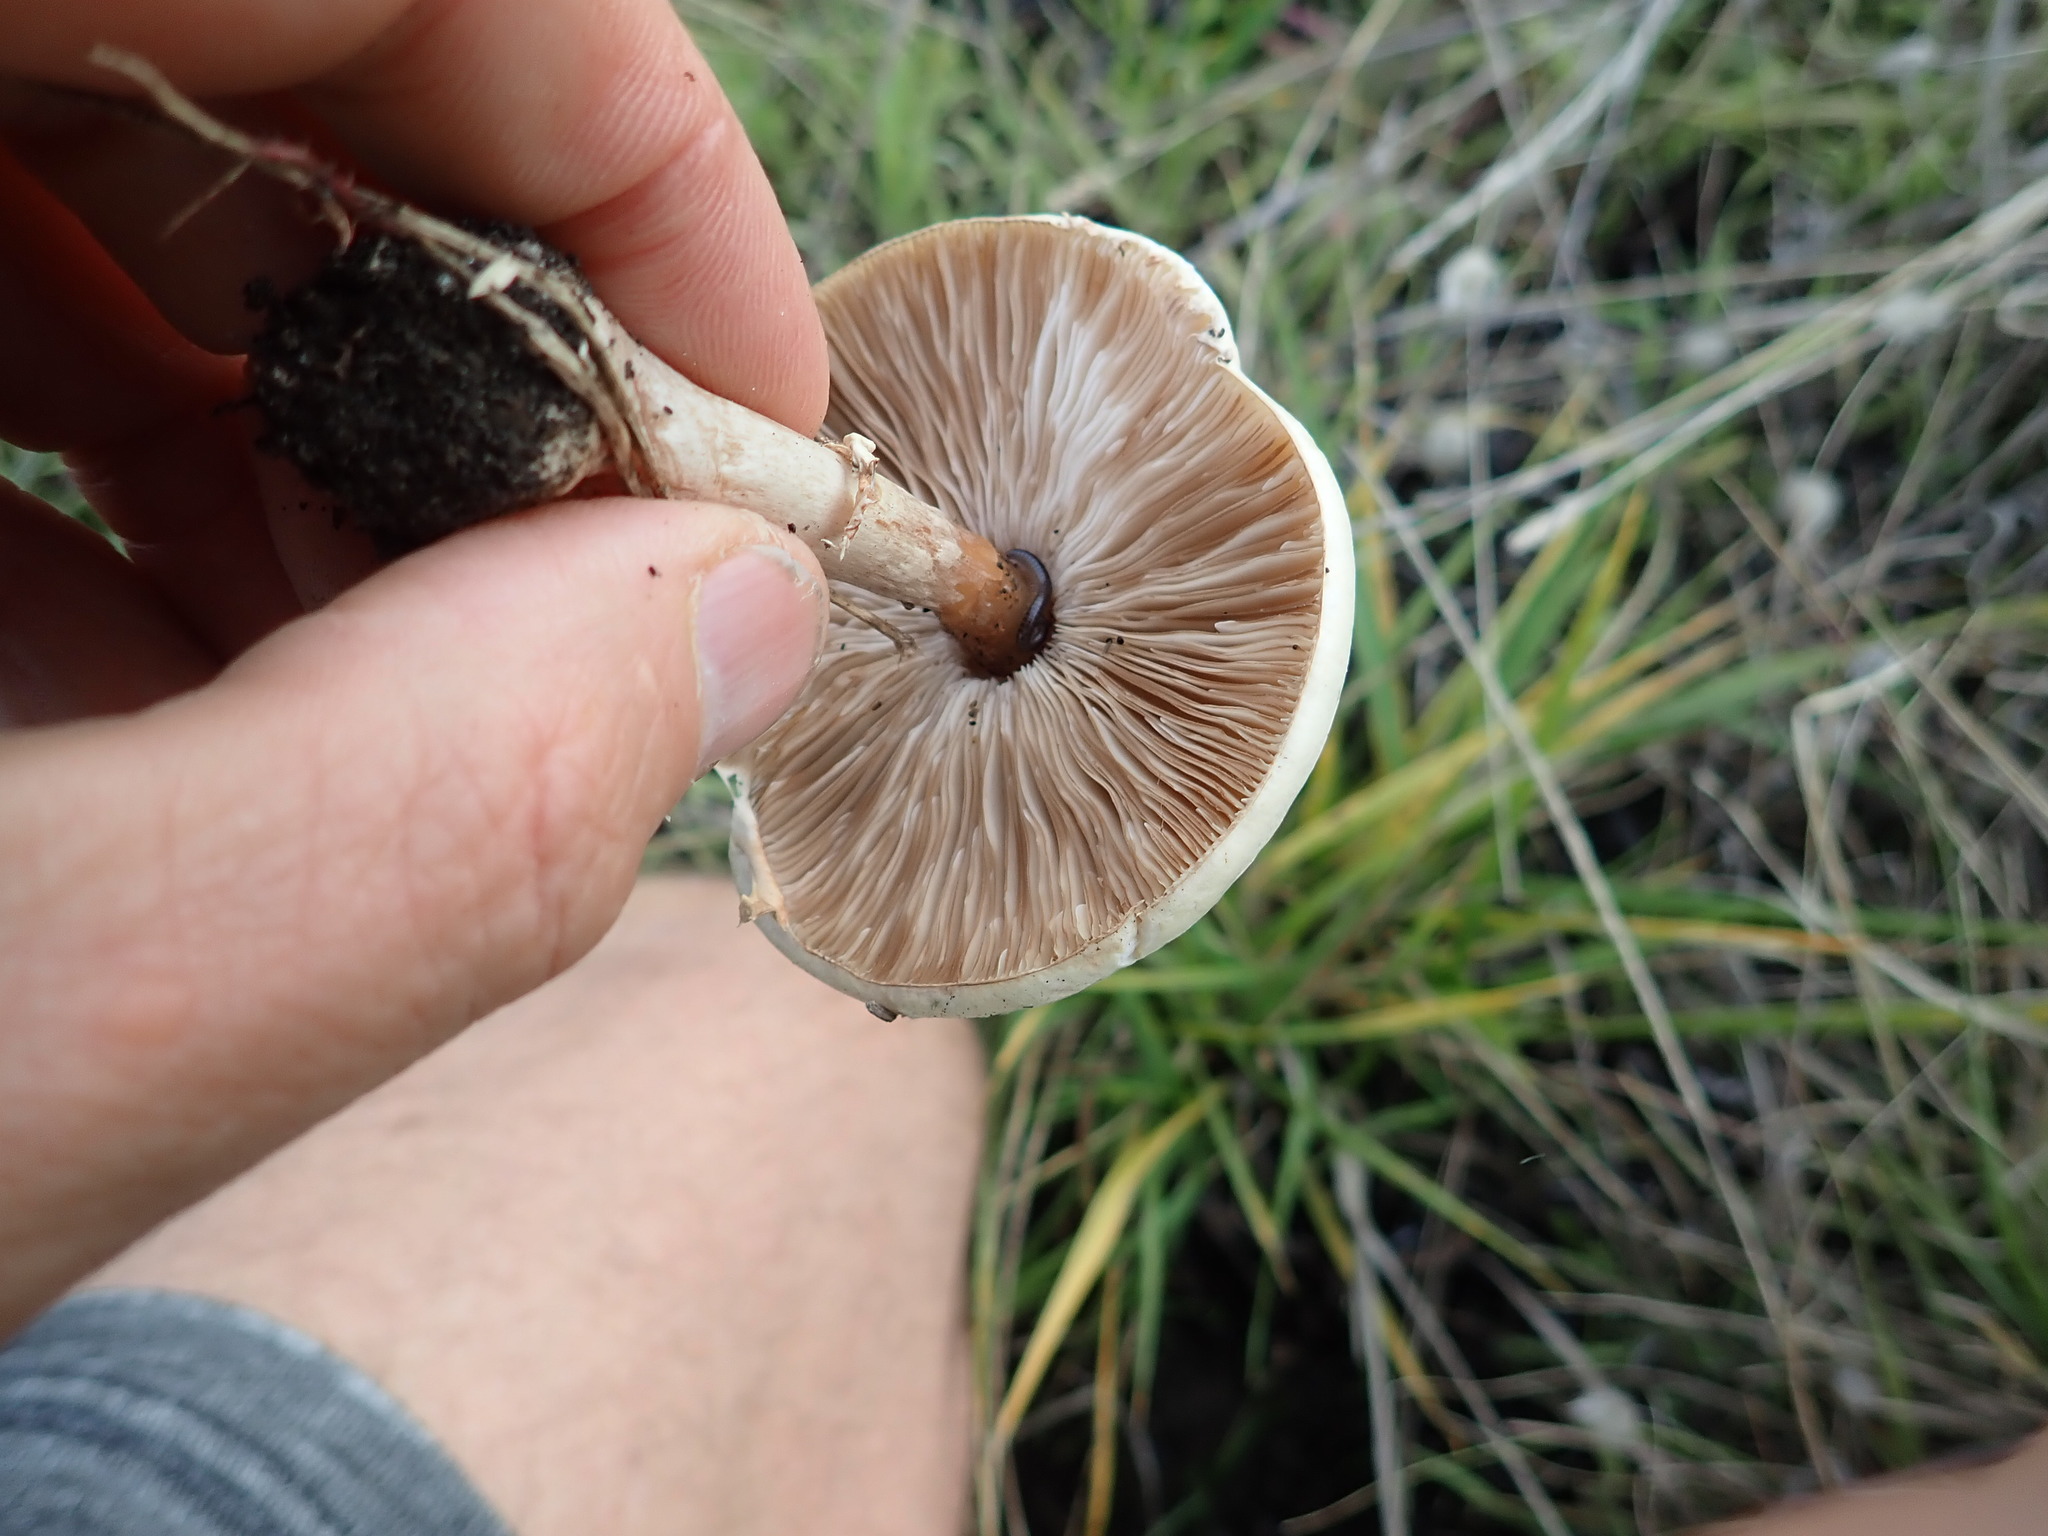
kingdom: Fungi
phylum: Basidiomycota
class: Agaricomycetes
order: Agaricales
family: Agaricaceae
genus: Leucoagaricus
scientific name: Leucoagaricus leucothites
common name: White dapperling
